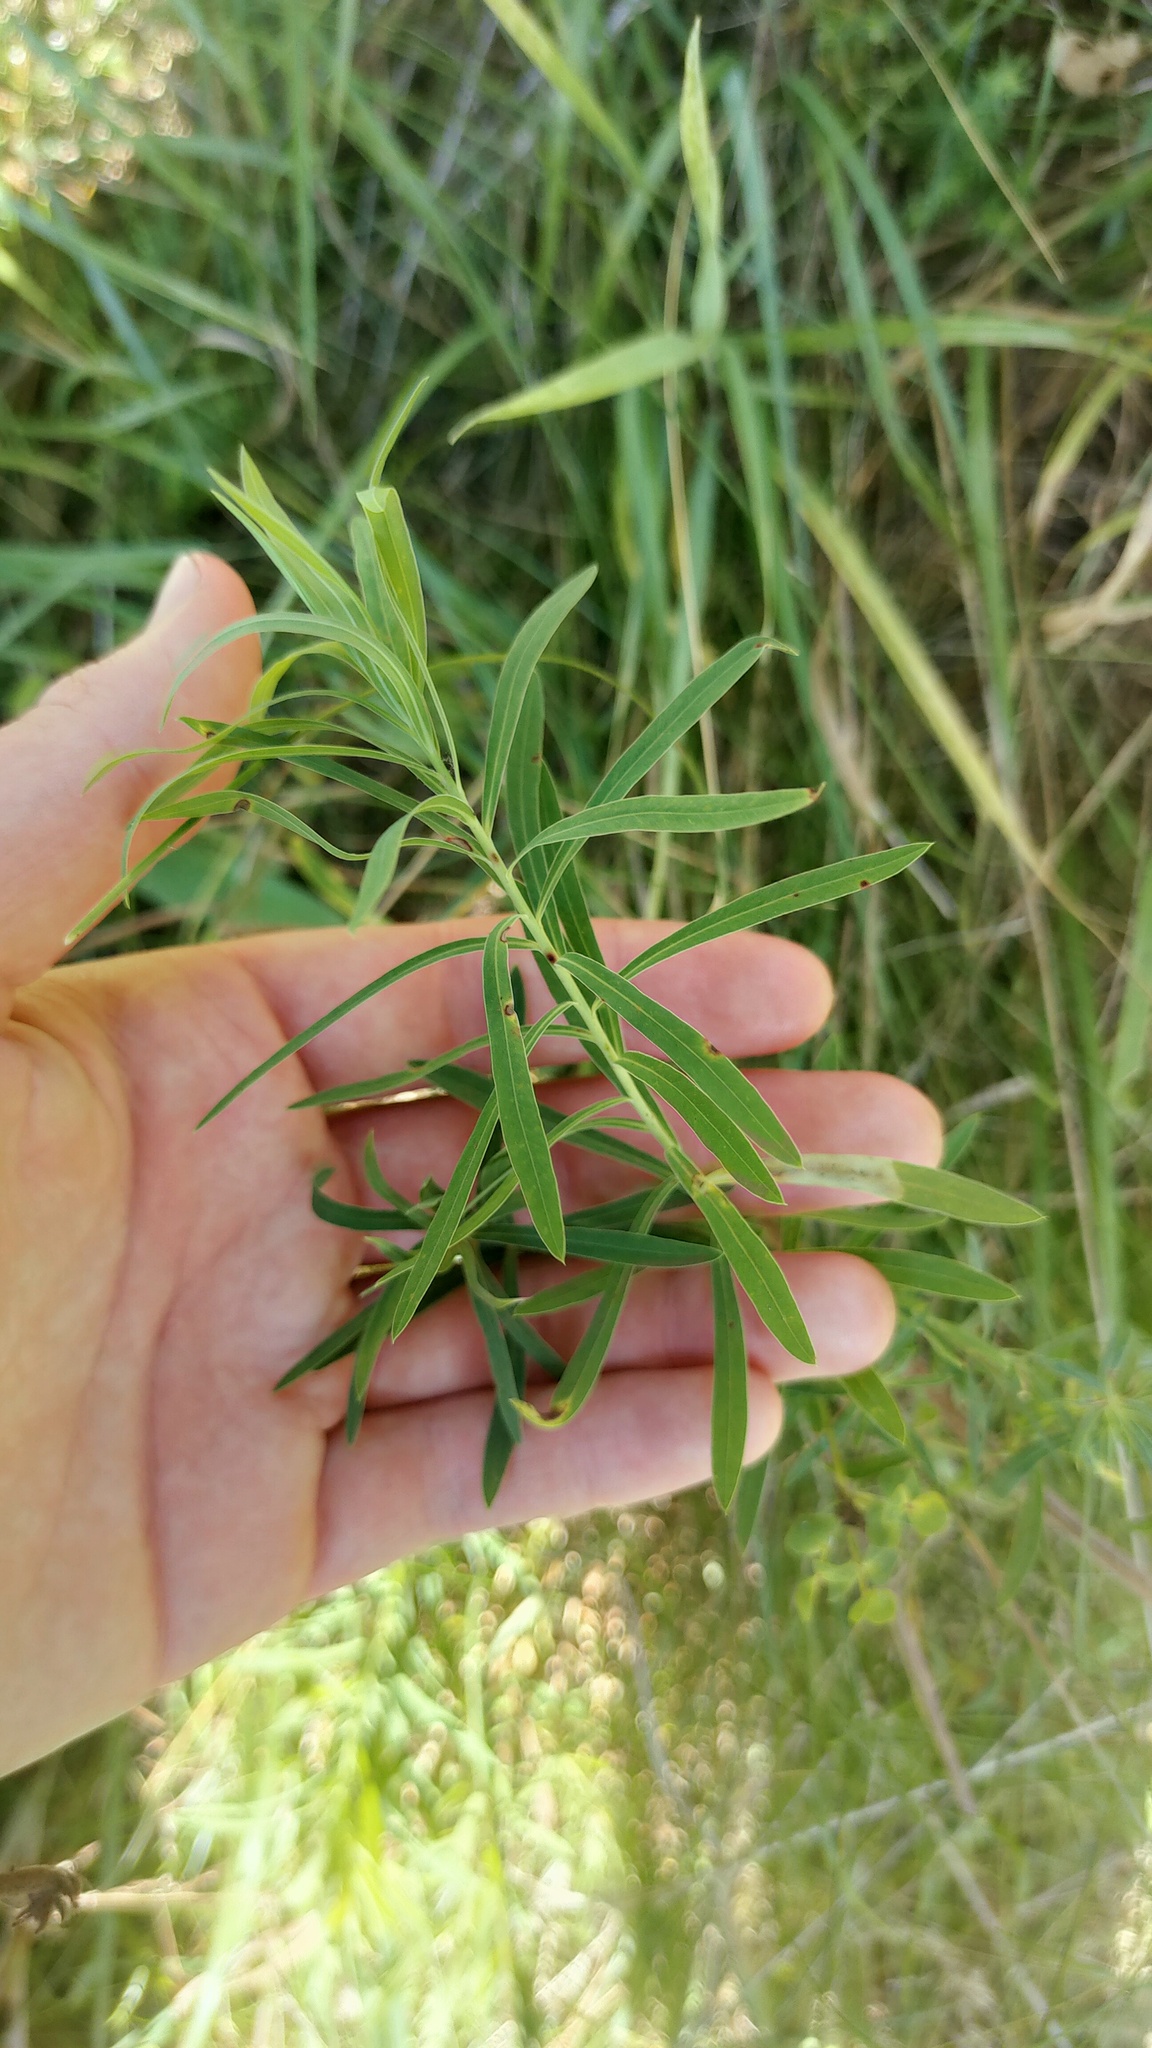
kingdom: Plantae
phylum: Tracheophyta
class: Magnoliopsida
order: Malpighiales
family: Euphorbiaceae
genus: Euphorbia
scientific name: Euphorbia virgata
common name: Leafy spurge
